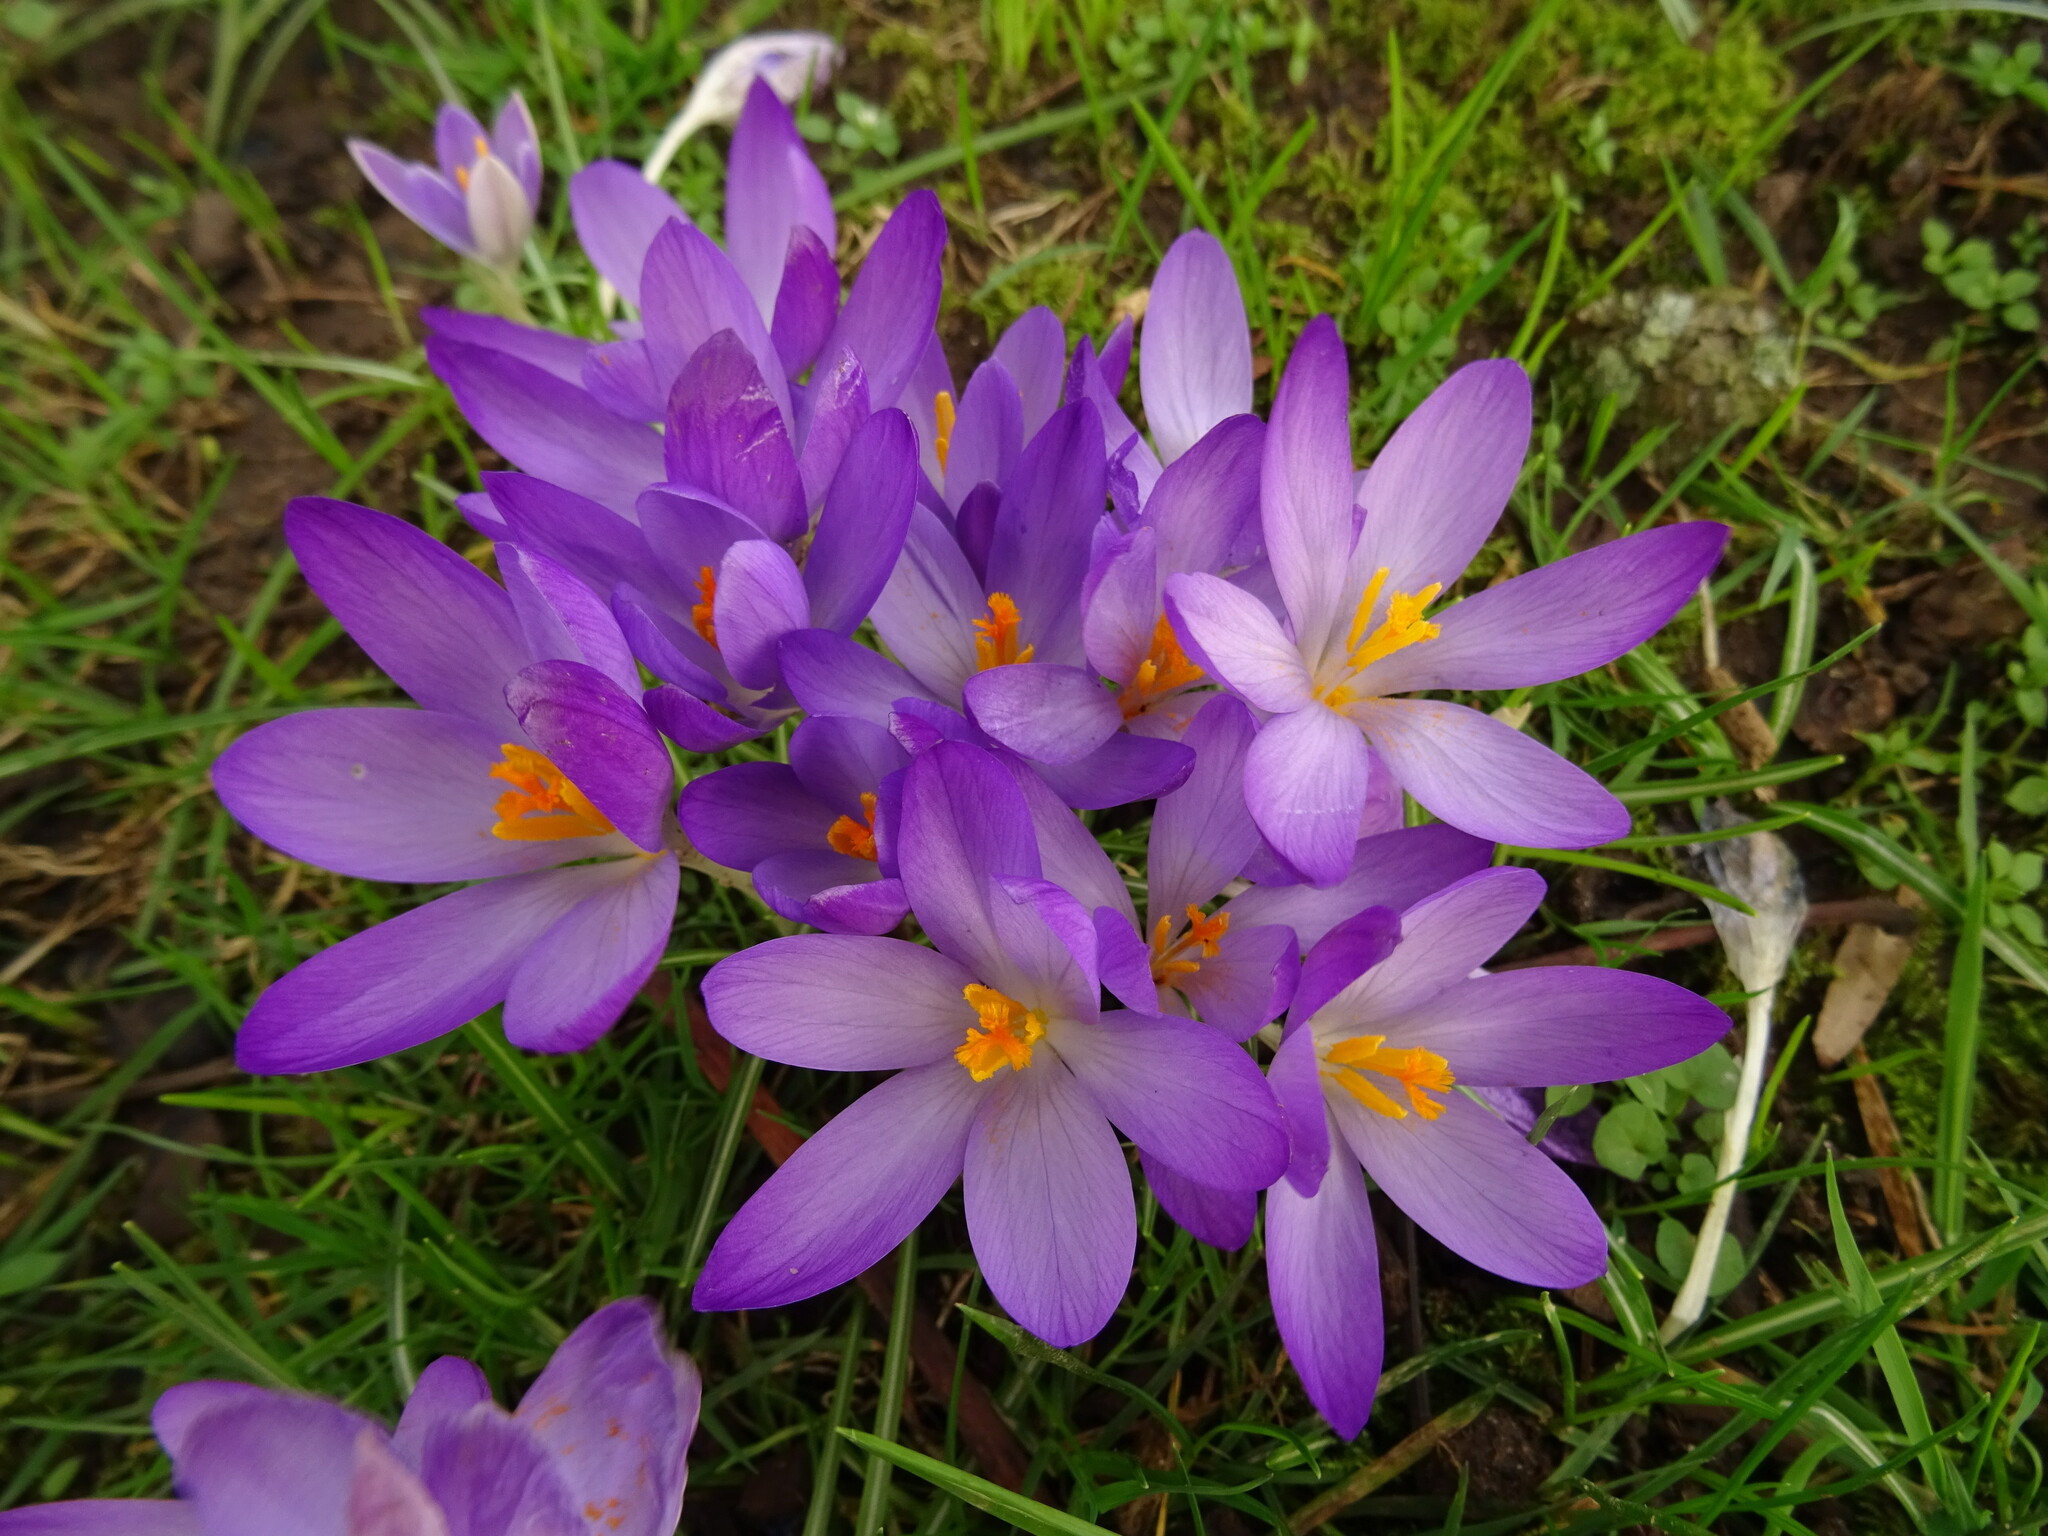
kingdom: Plantae
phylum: Tracheophyta
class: Liliopsida
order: Asparagales
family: Iridaceae
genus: Crocus
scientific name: Crocus tommasinianus
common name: Early crocus
